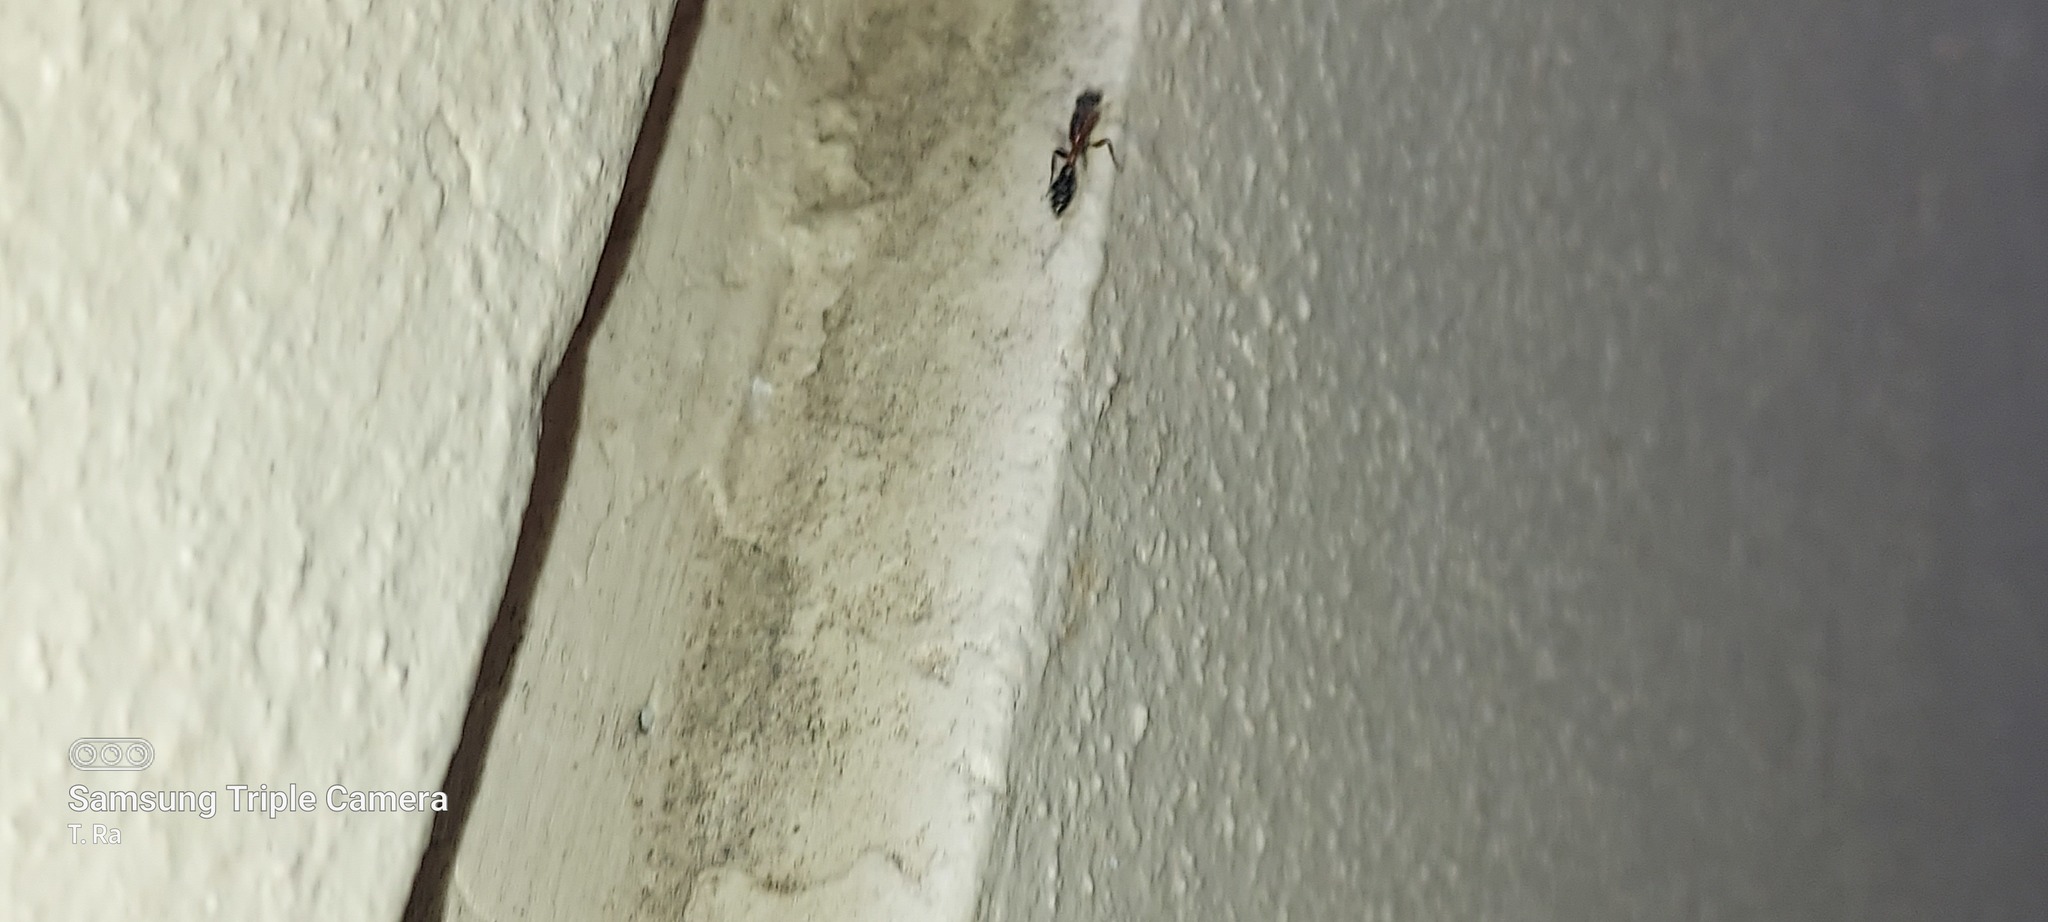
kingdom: Animalia
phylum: Arthropoda
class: Insecta
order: Hymenoptera
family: Formicidae
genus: Pseudomyrmex
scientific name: Pseudomyrmex gracilis
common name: Graceful twig ant
